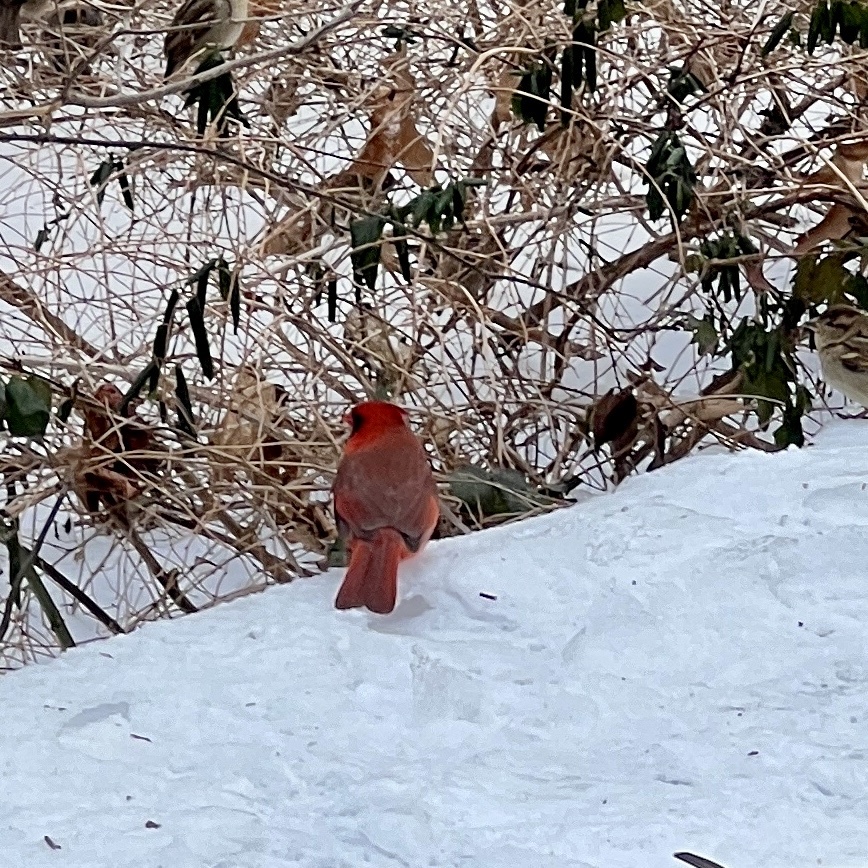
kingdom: Animalia
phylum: Chordata
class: Aves
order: Passeriformes
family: Cardinalidae
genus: Cardinalis
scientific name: Cardinalis cardinalis
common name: Northern cardinal
